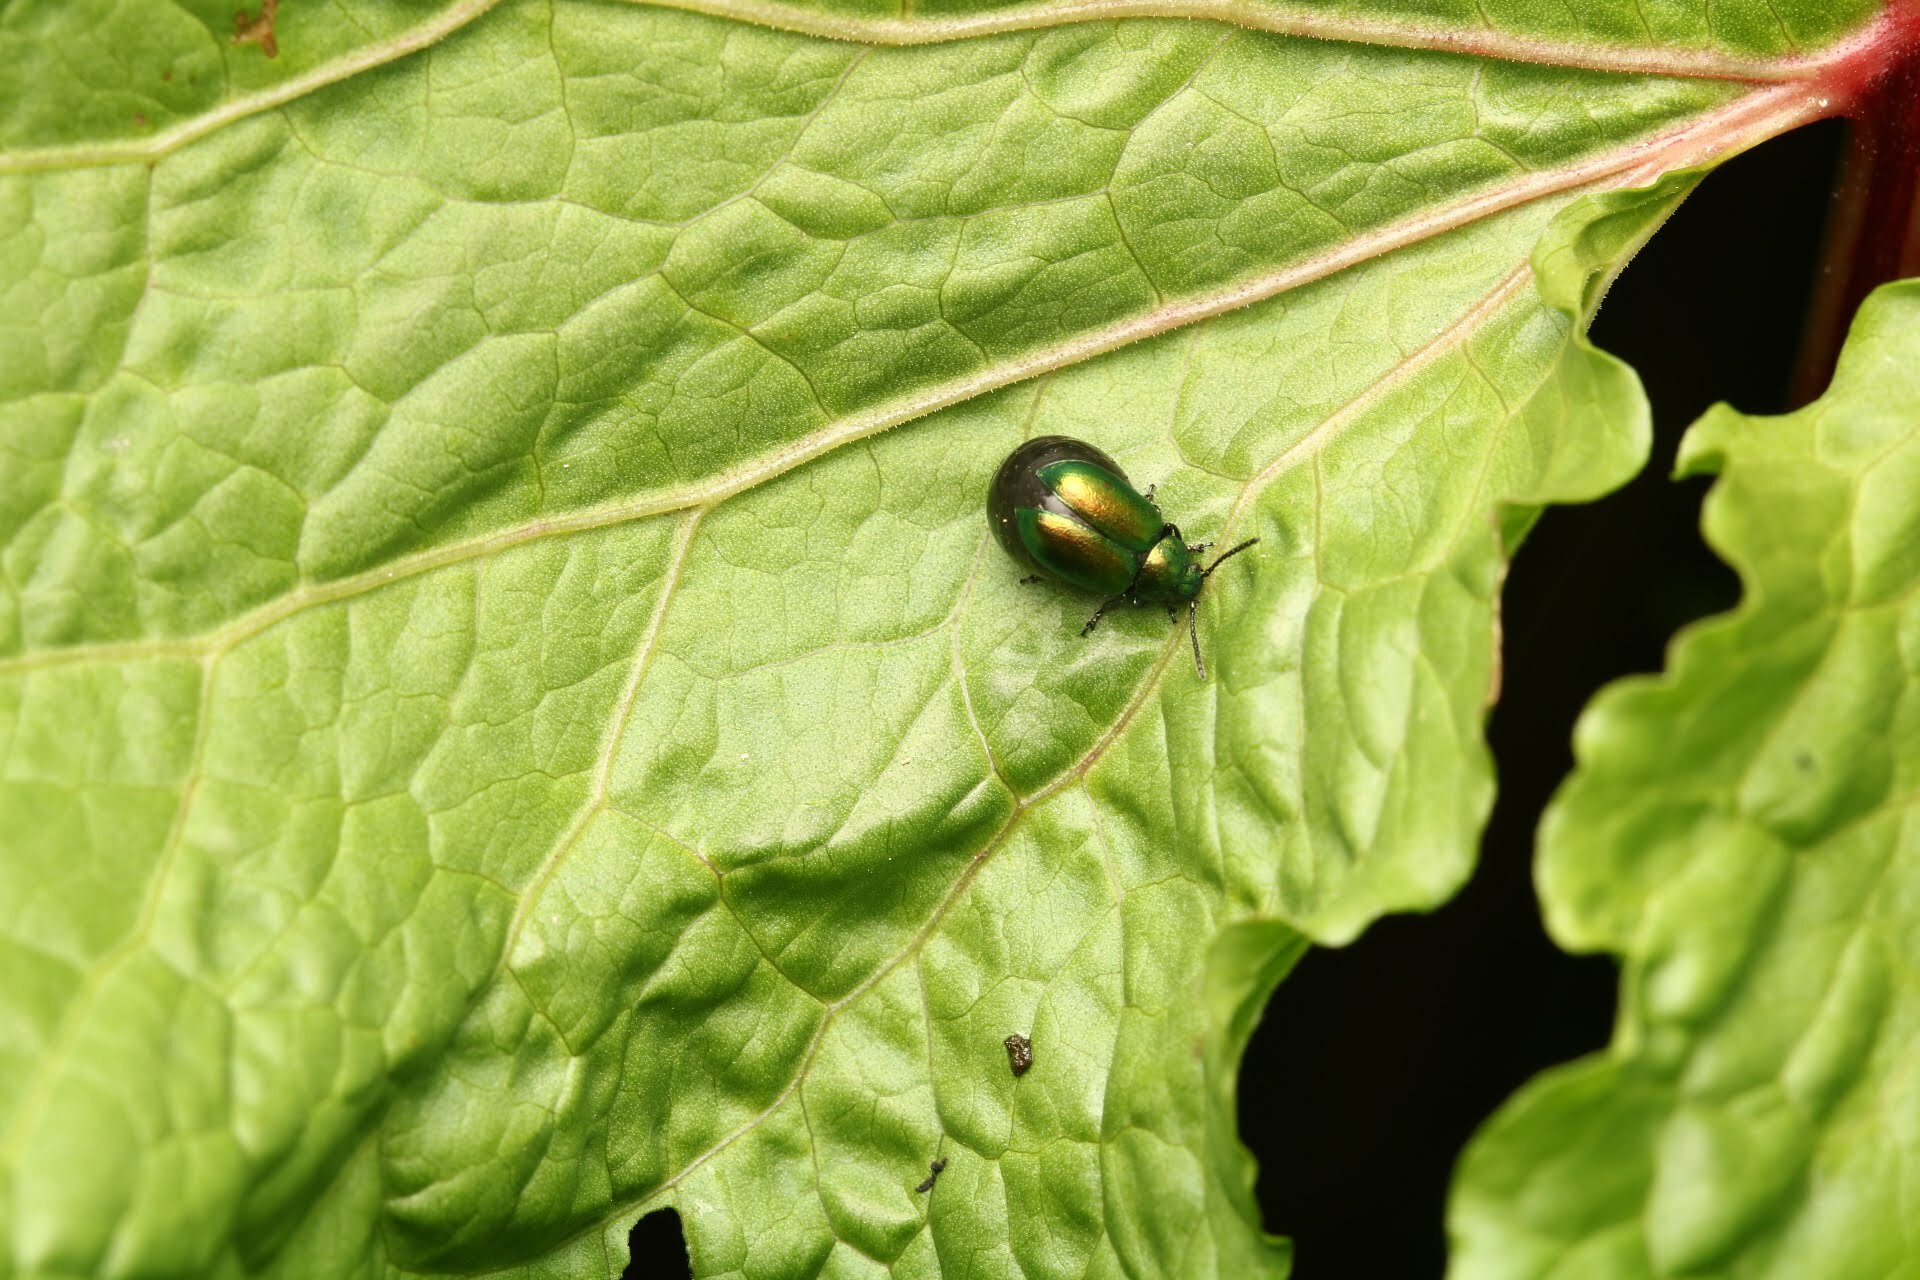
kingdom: Animalia
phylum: Arthropoda
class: Insecta
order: Coleoptera
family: Chrysomelidae
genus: Gastrophysa
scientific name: Gastrophysa viridula
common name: Green dock beetle
